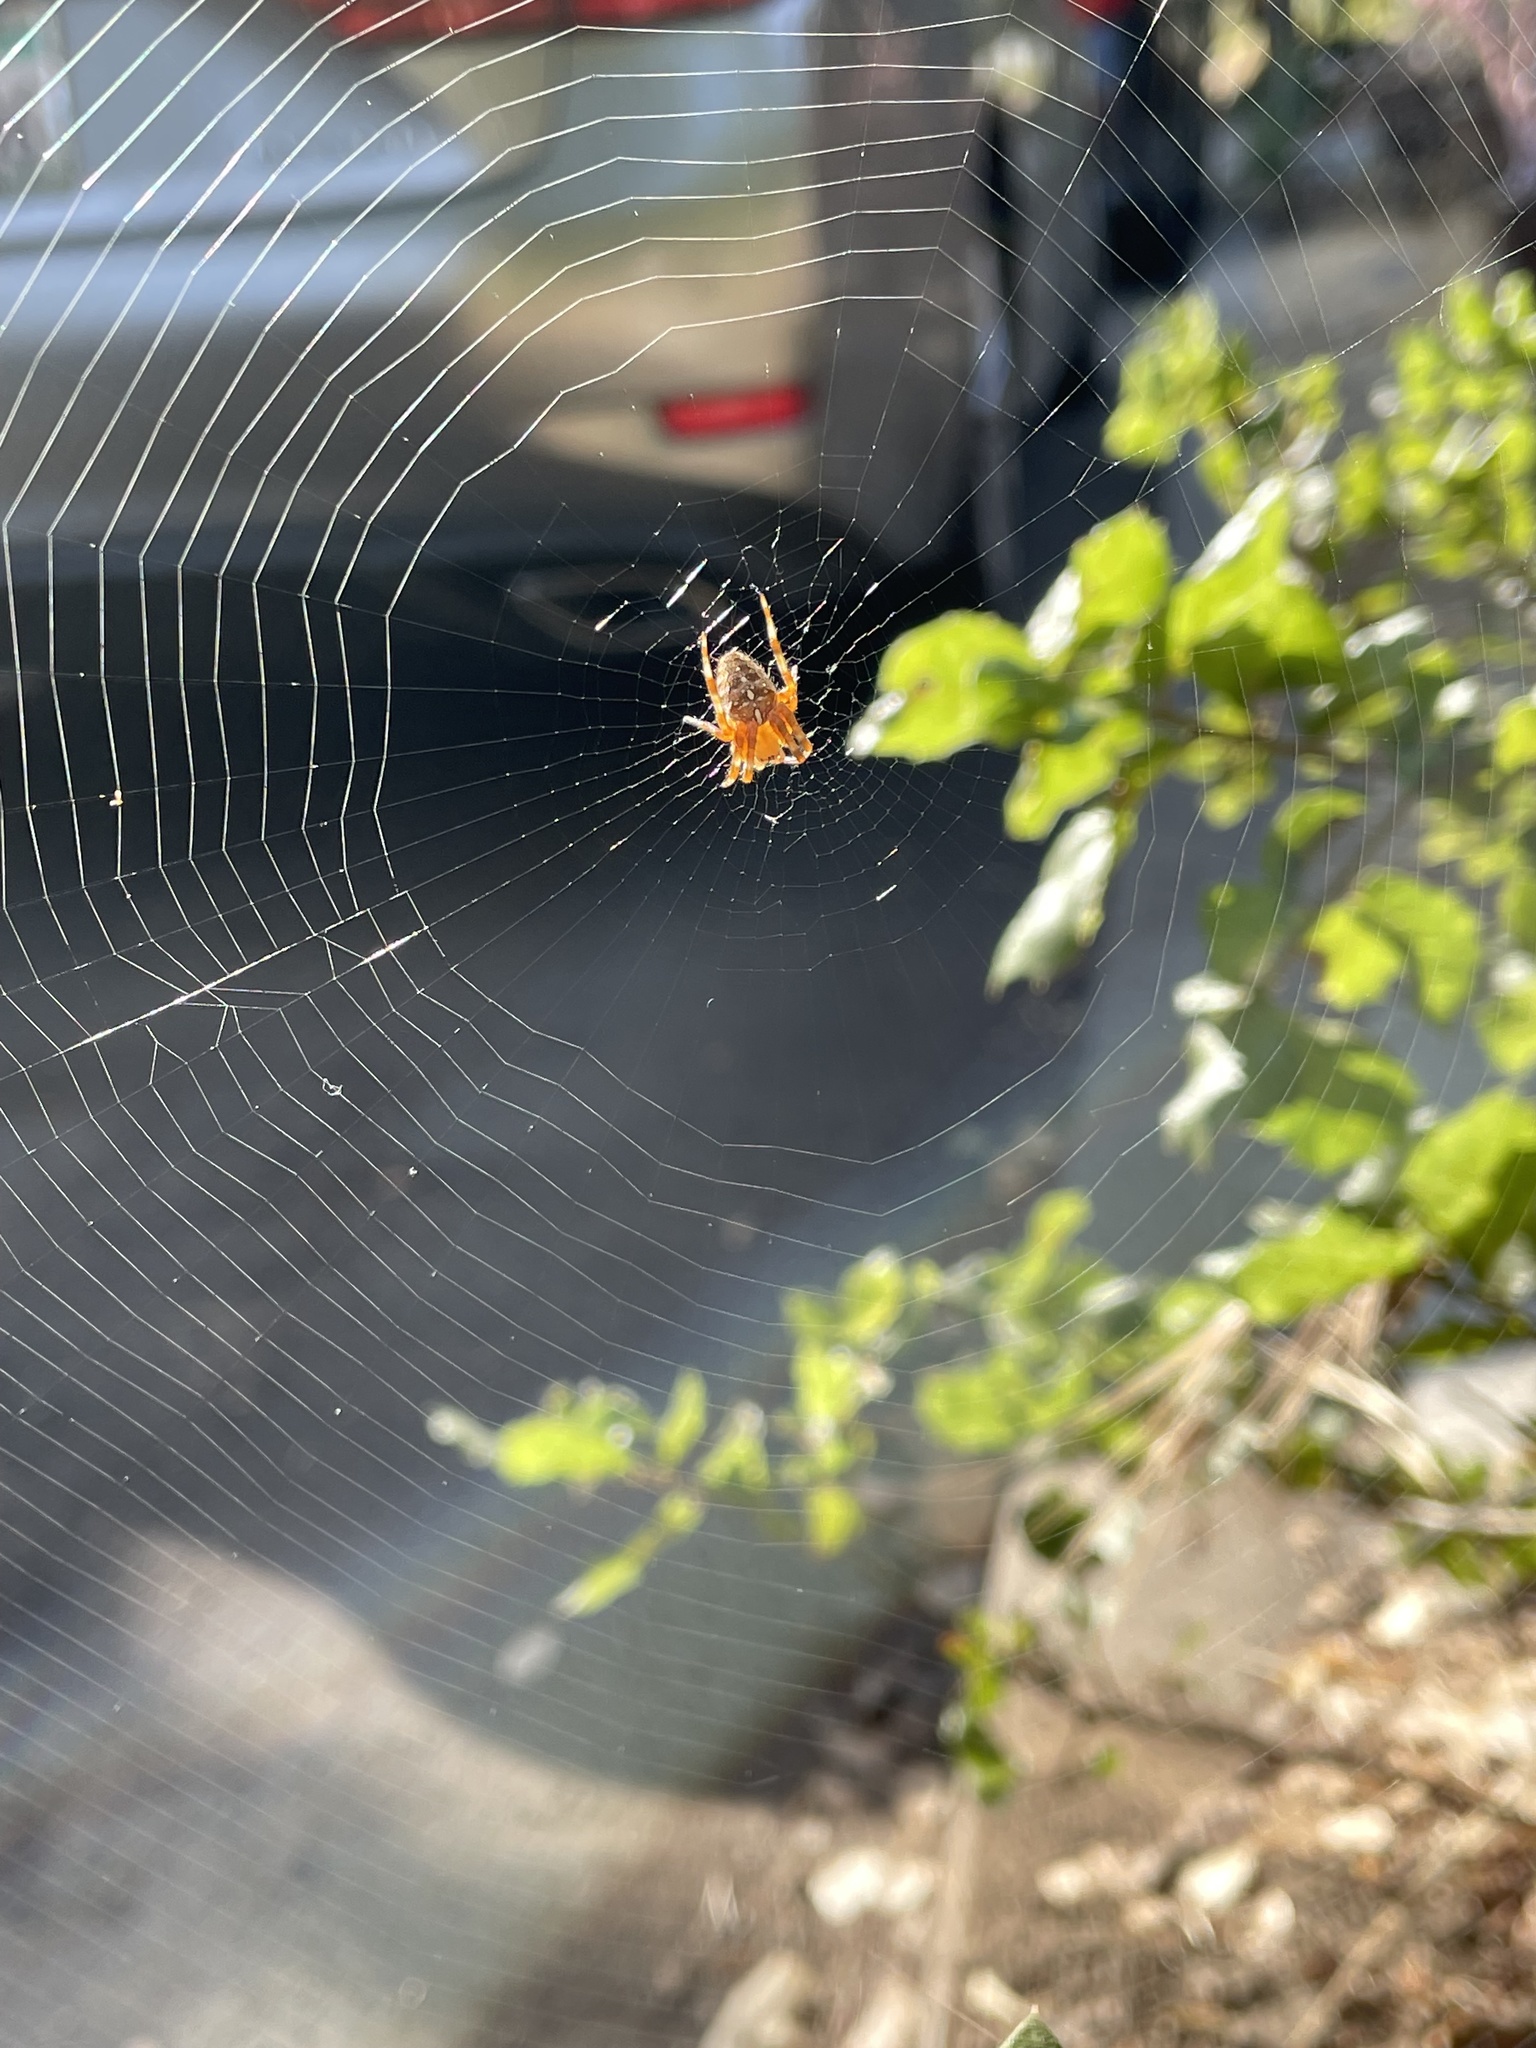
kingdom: Animalia
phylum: Arthropoda
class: Arachnida
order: Araneae
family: Araneidae
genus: Araneus
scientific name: Araneus diadematus
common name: Cross orbweaver
